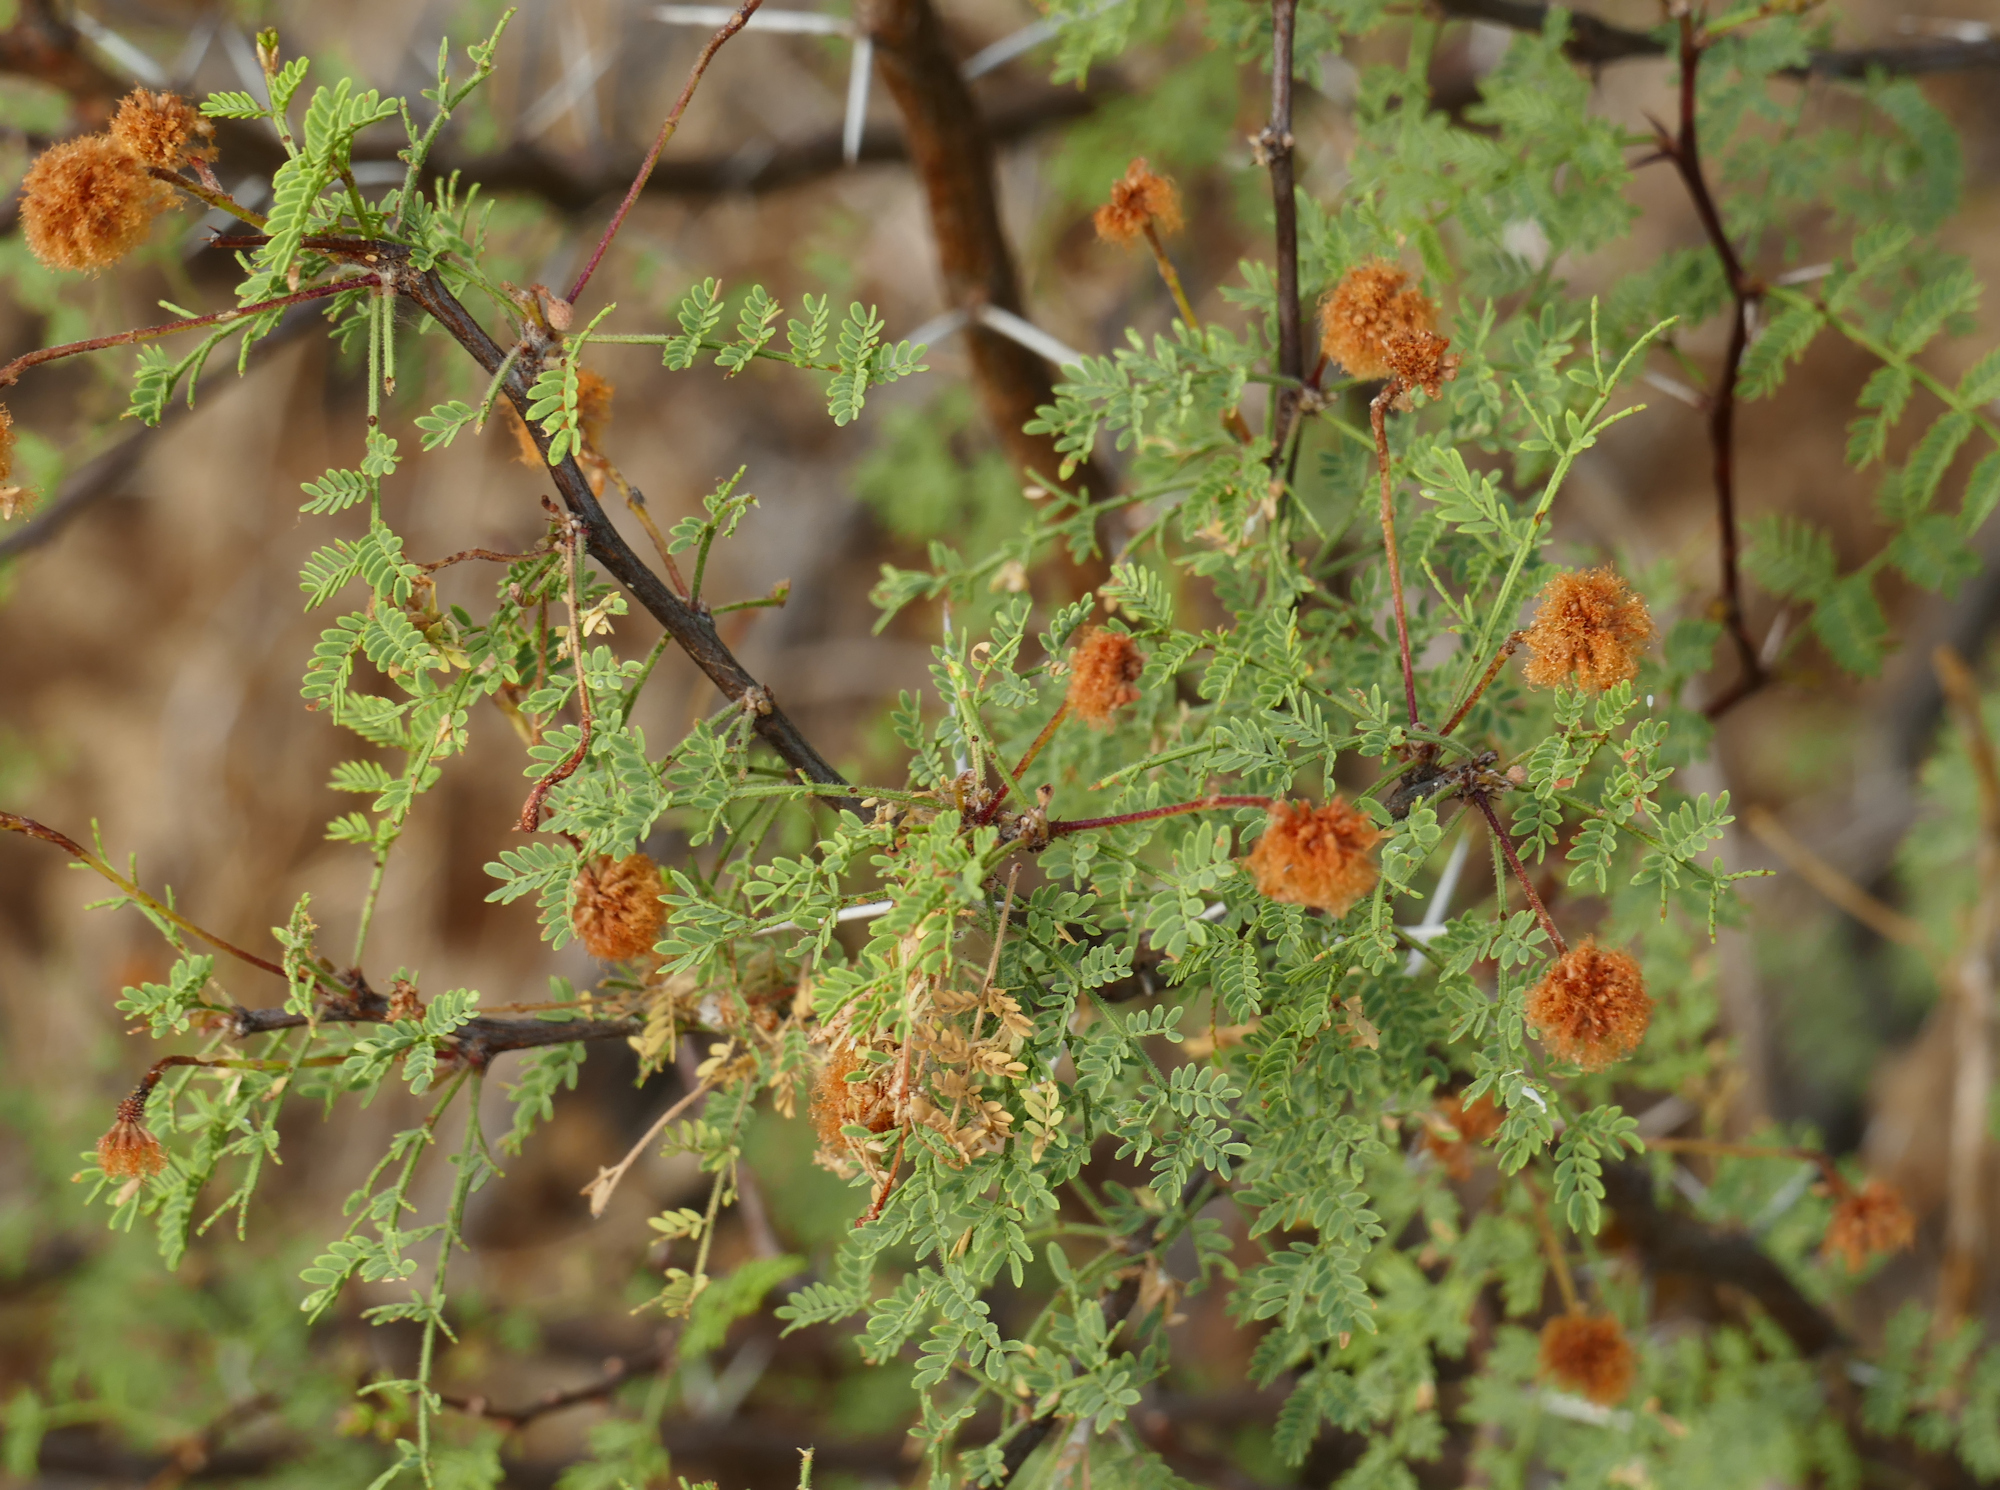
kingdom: Plantae
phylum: Tracheophyta
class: Magnoliopsida
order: Fabales
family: Fabaceae
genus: Vachellia
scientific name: Vachellia constricta
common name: Mescat acacia
